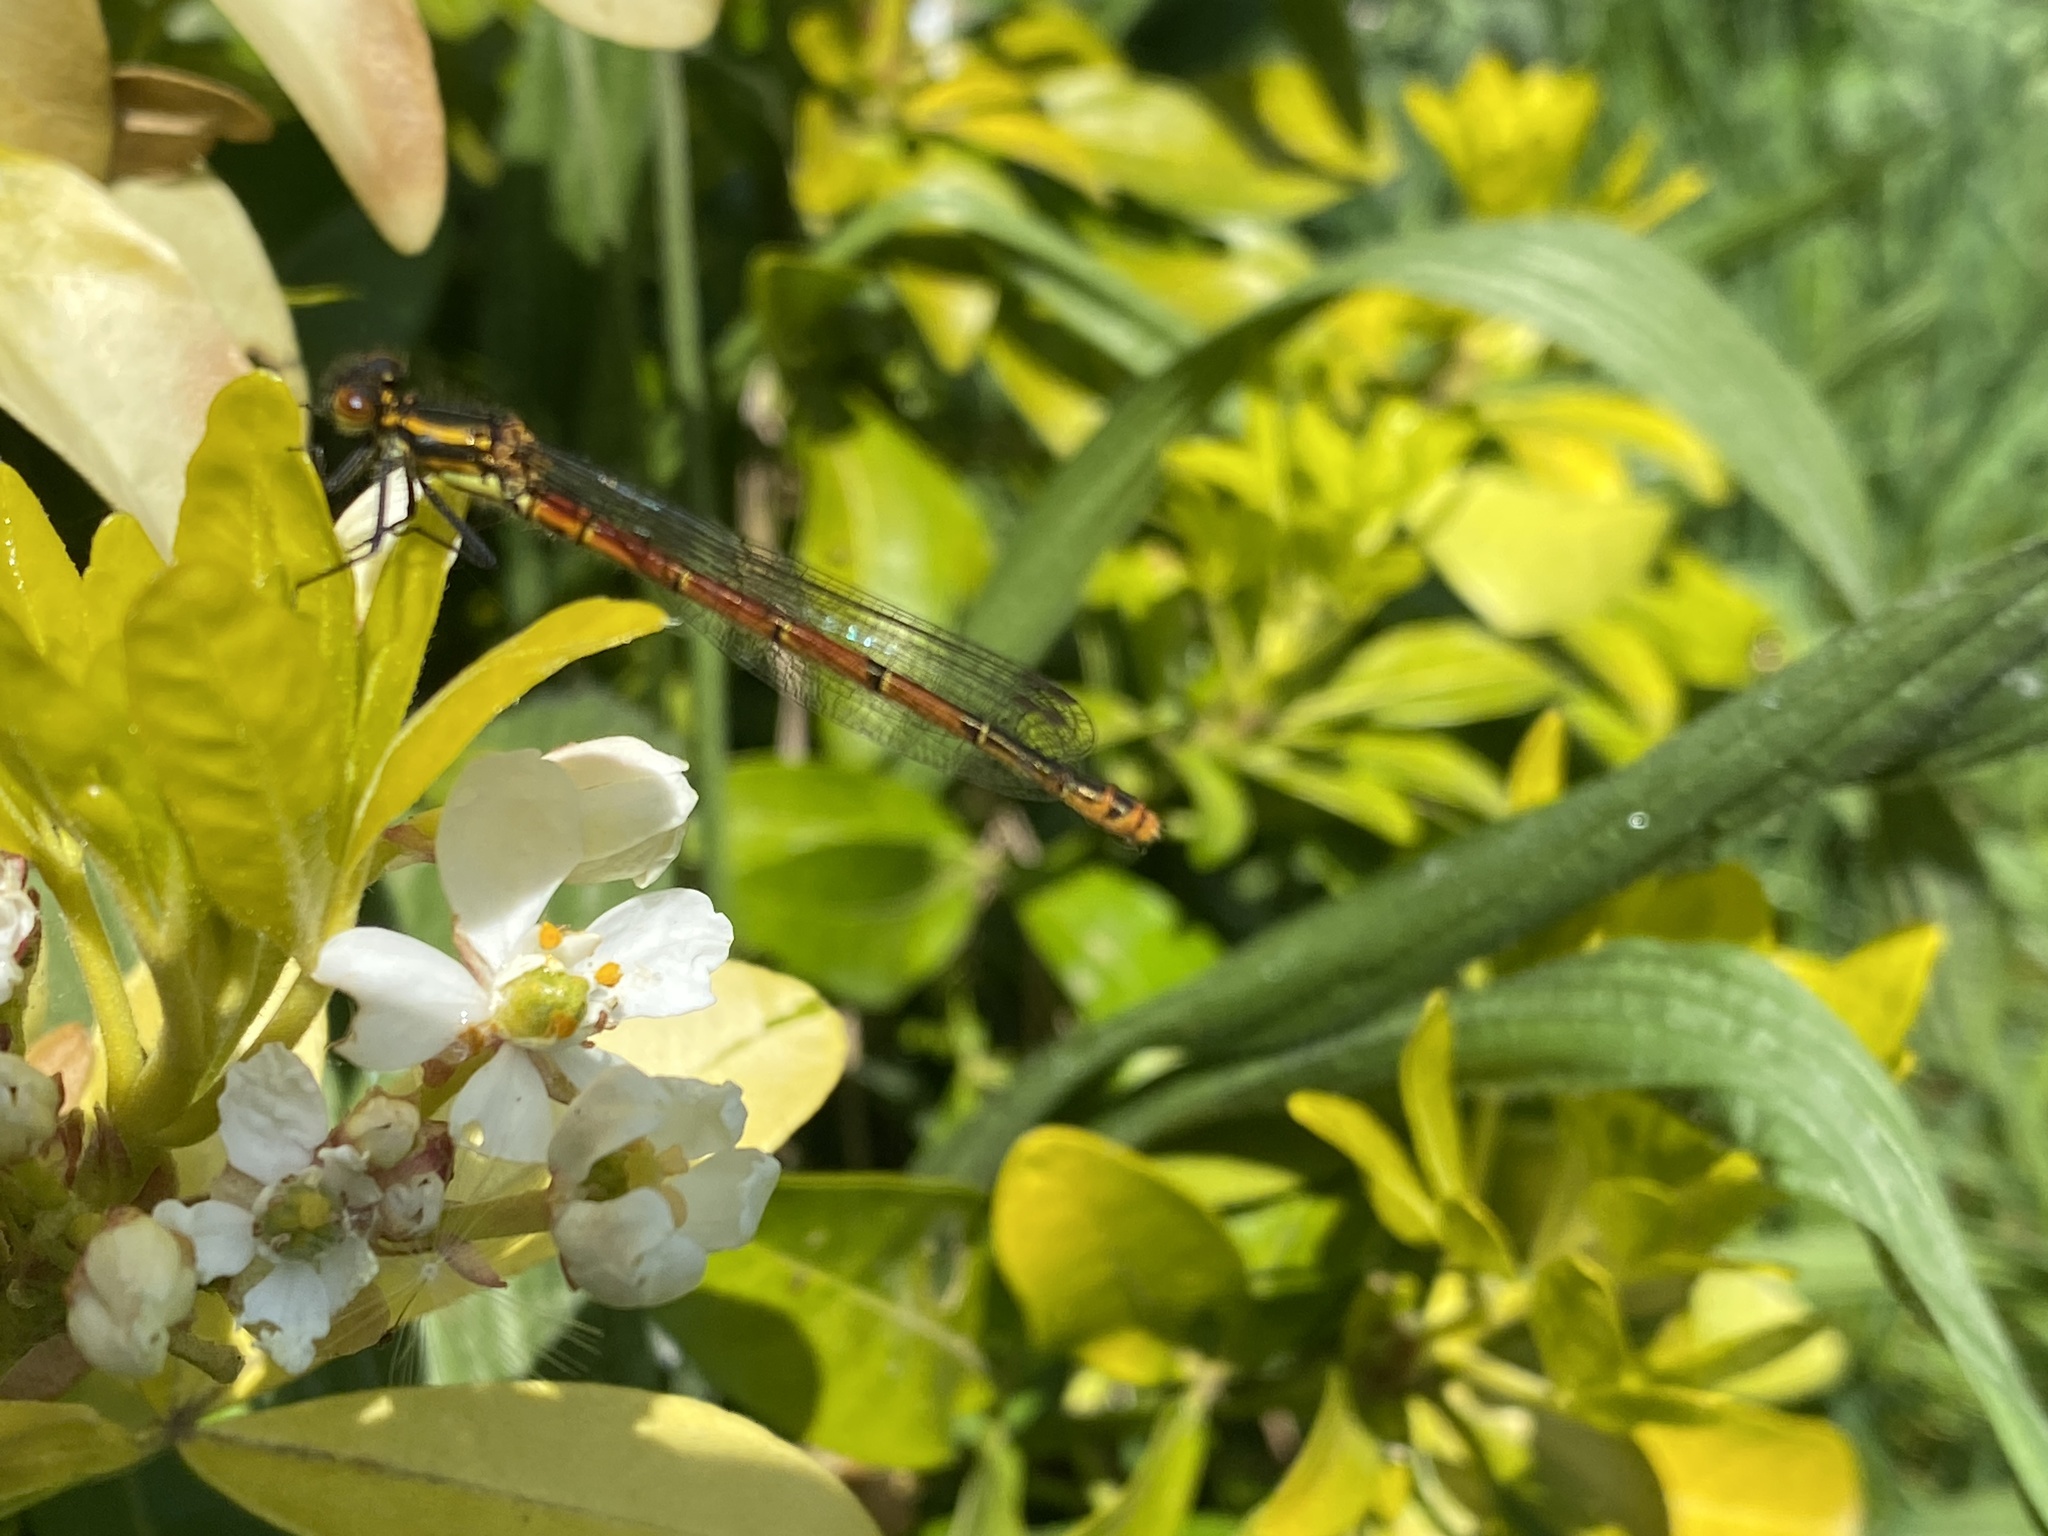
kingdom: Animalia
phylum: Arthropoda
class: Insecta
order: Odonata
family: Coenagrionidae
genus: Pyrrhosoma
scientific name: Pyrrhosoma nymphula
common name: Large red damsel
